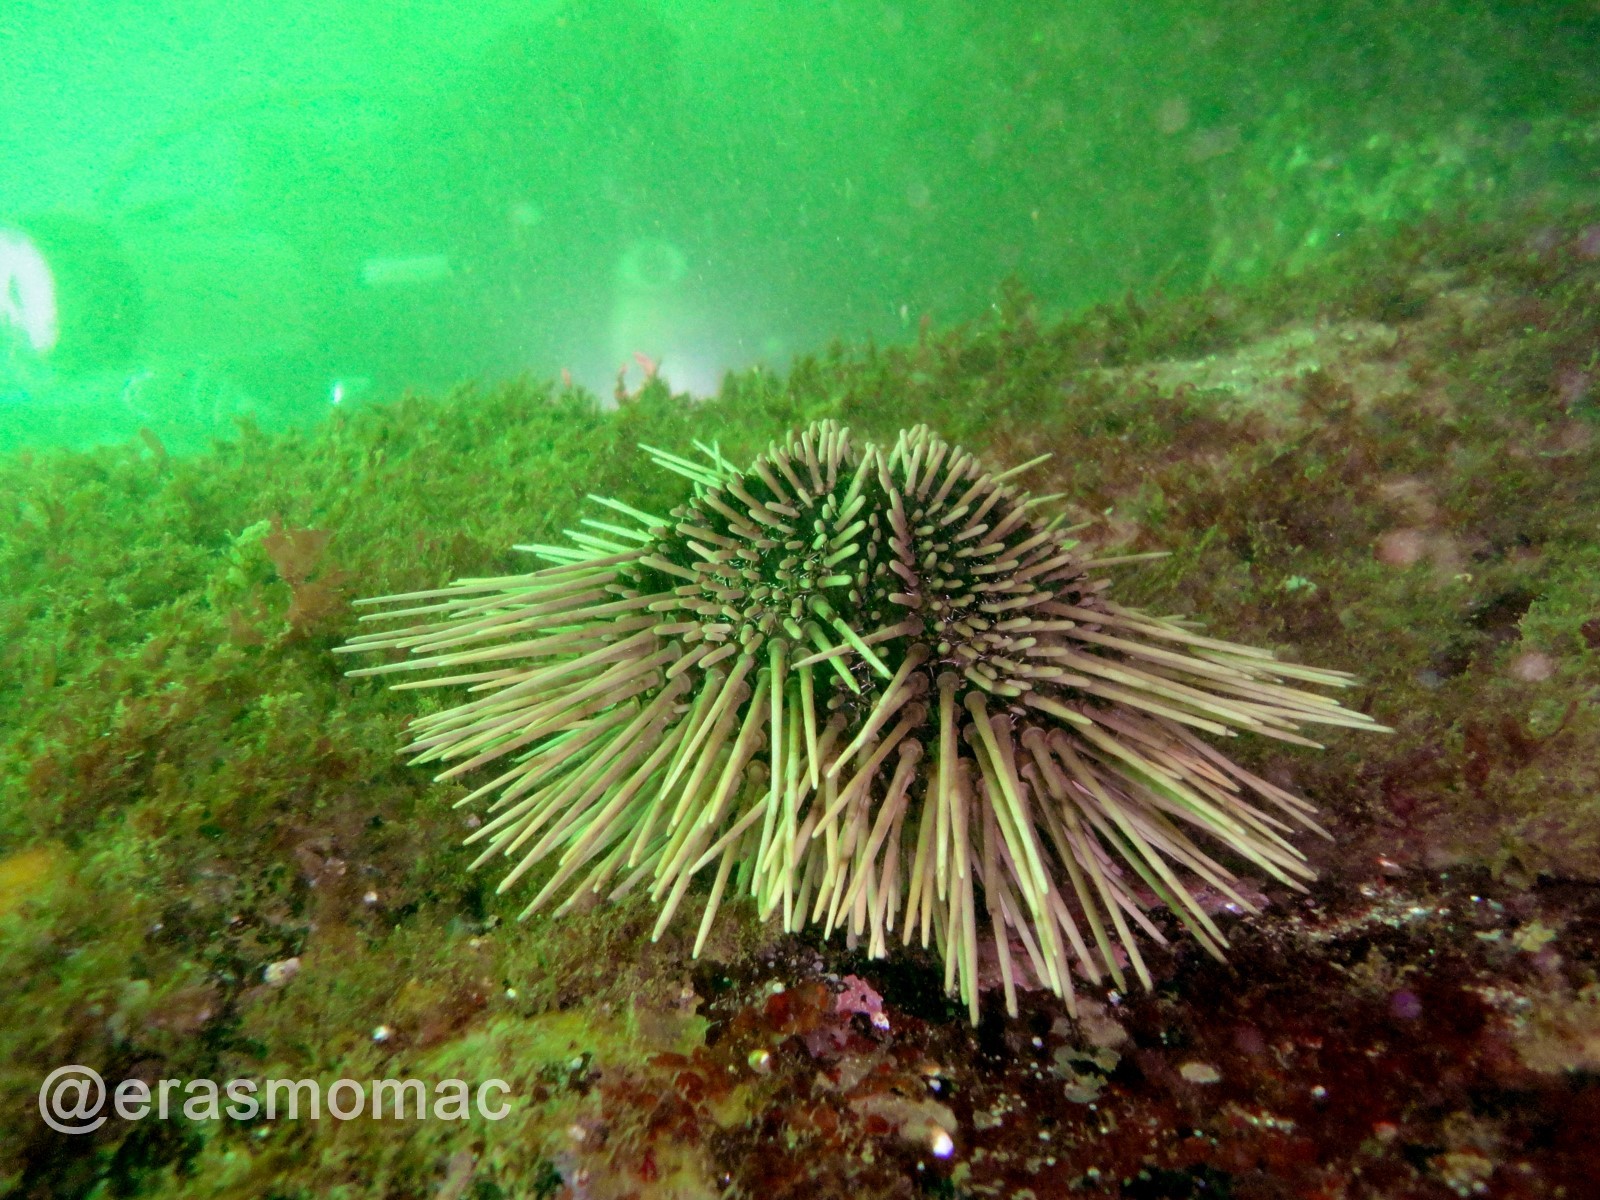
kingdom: Animalia
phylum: Echinodermata
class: Echinoidea
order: Arbacioida
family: Arbaciidae
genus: Arbacia
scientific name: Arbacia spatuligera
